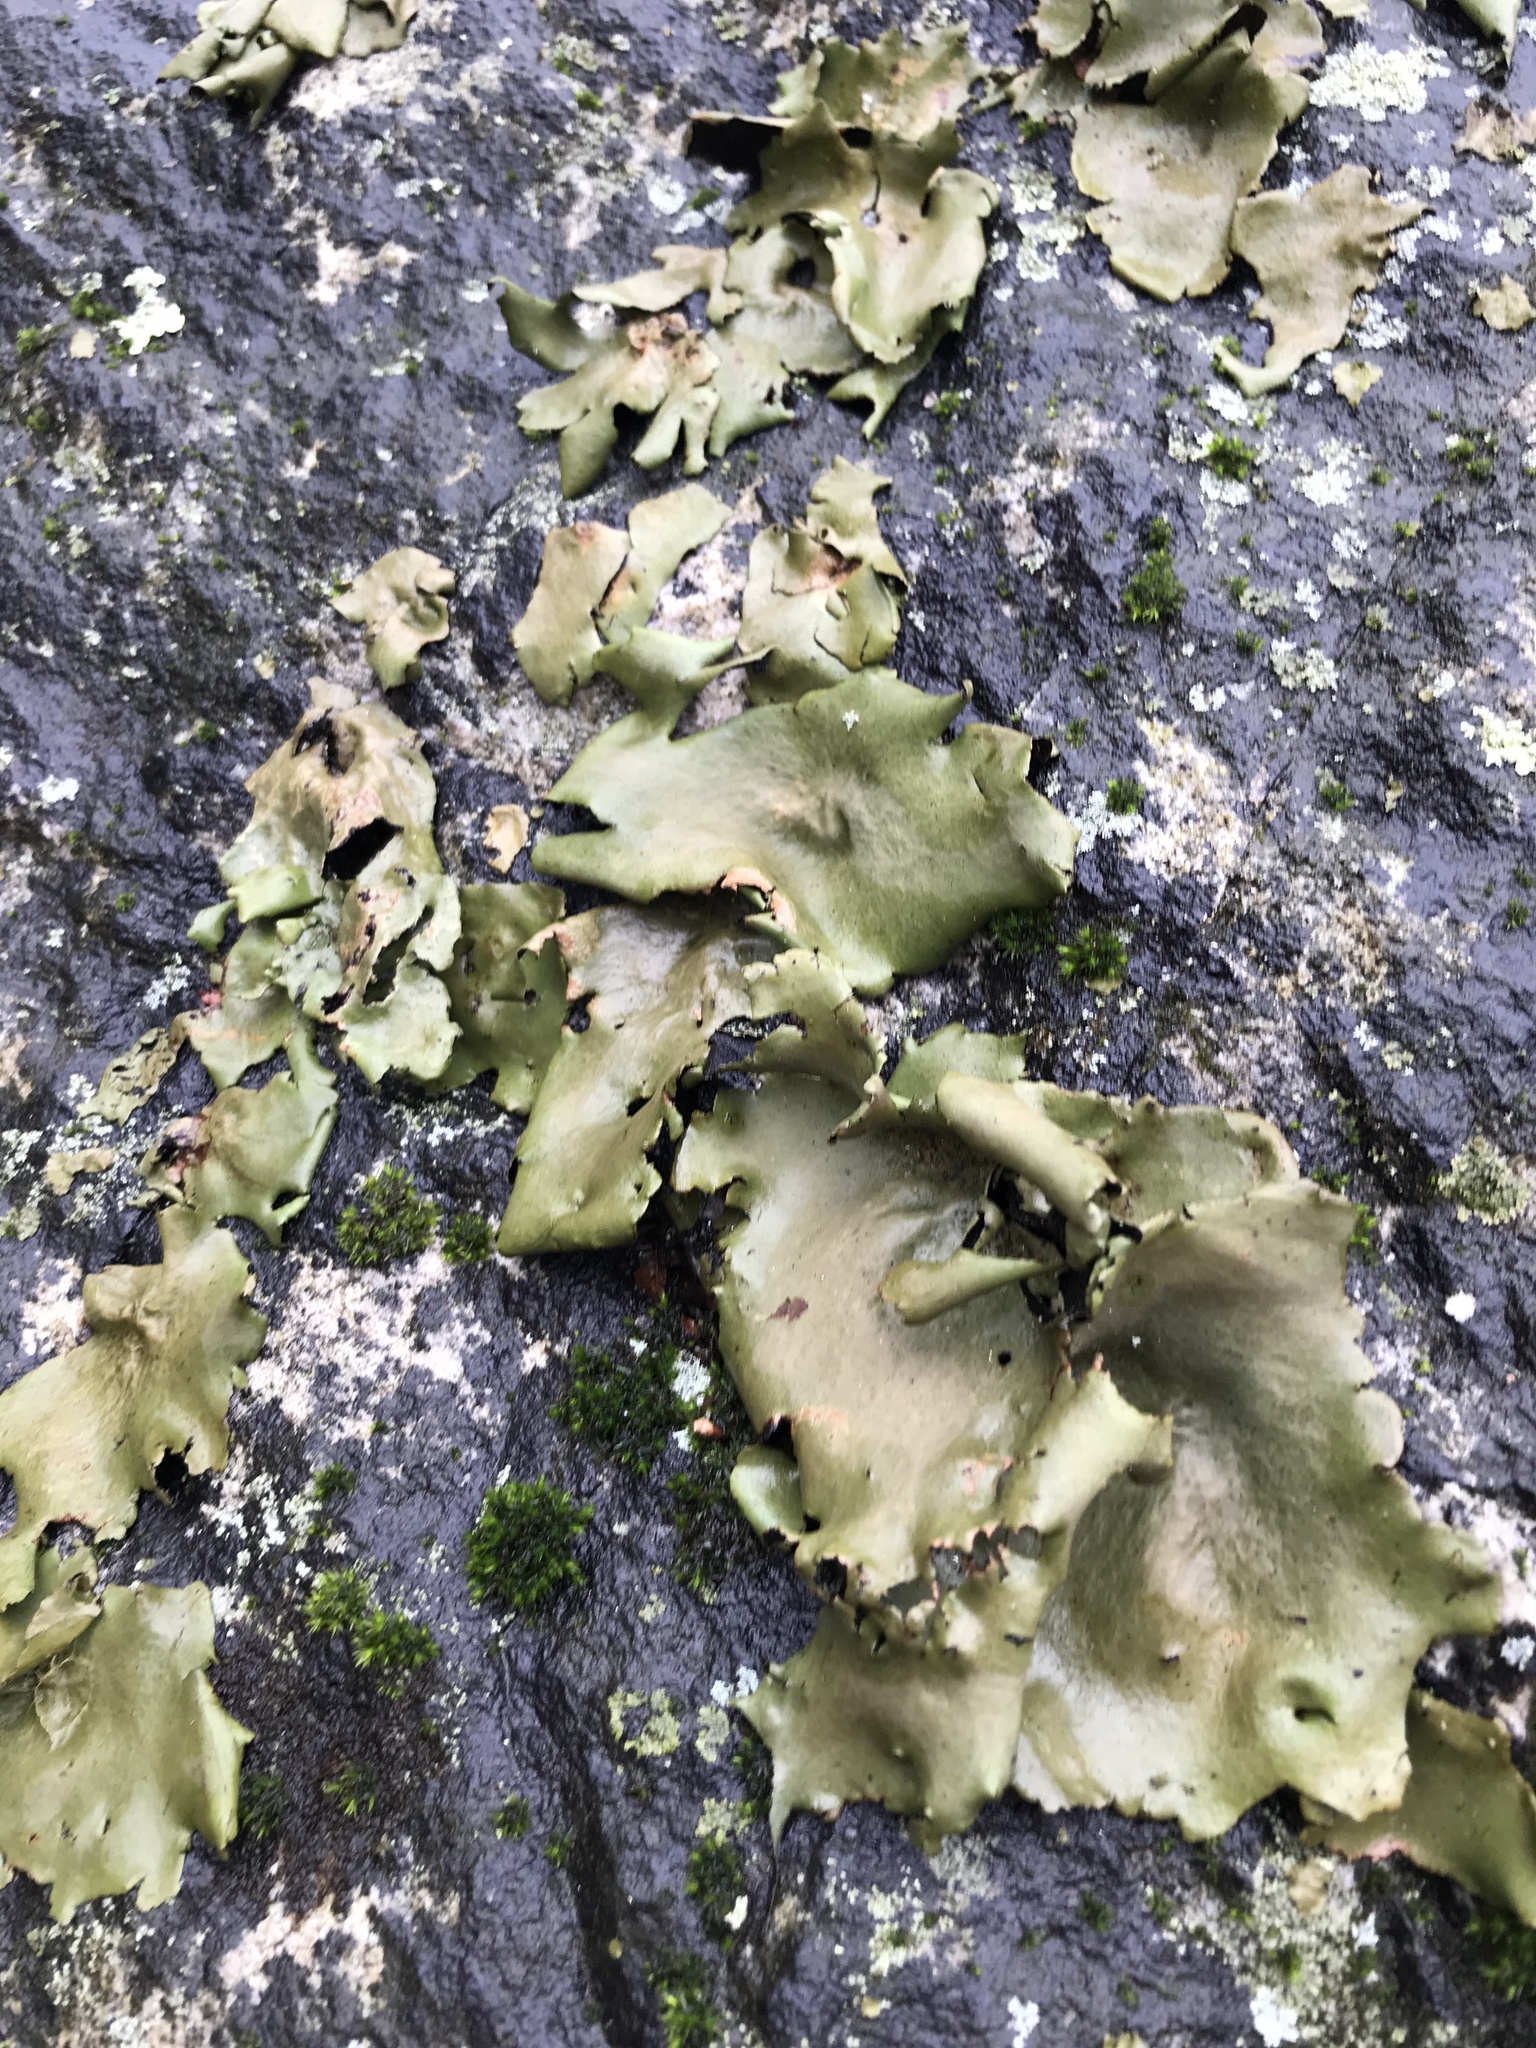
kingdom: Fungi
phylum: Ascomycota
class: Lecanoromycetes
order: Umbilicariales
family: Umbilicariaceae
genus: Umbilicaria
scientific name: Umbilicaria mammulata
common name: Smooth rock tripe
